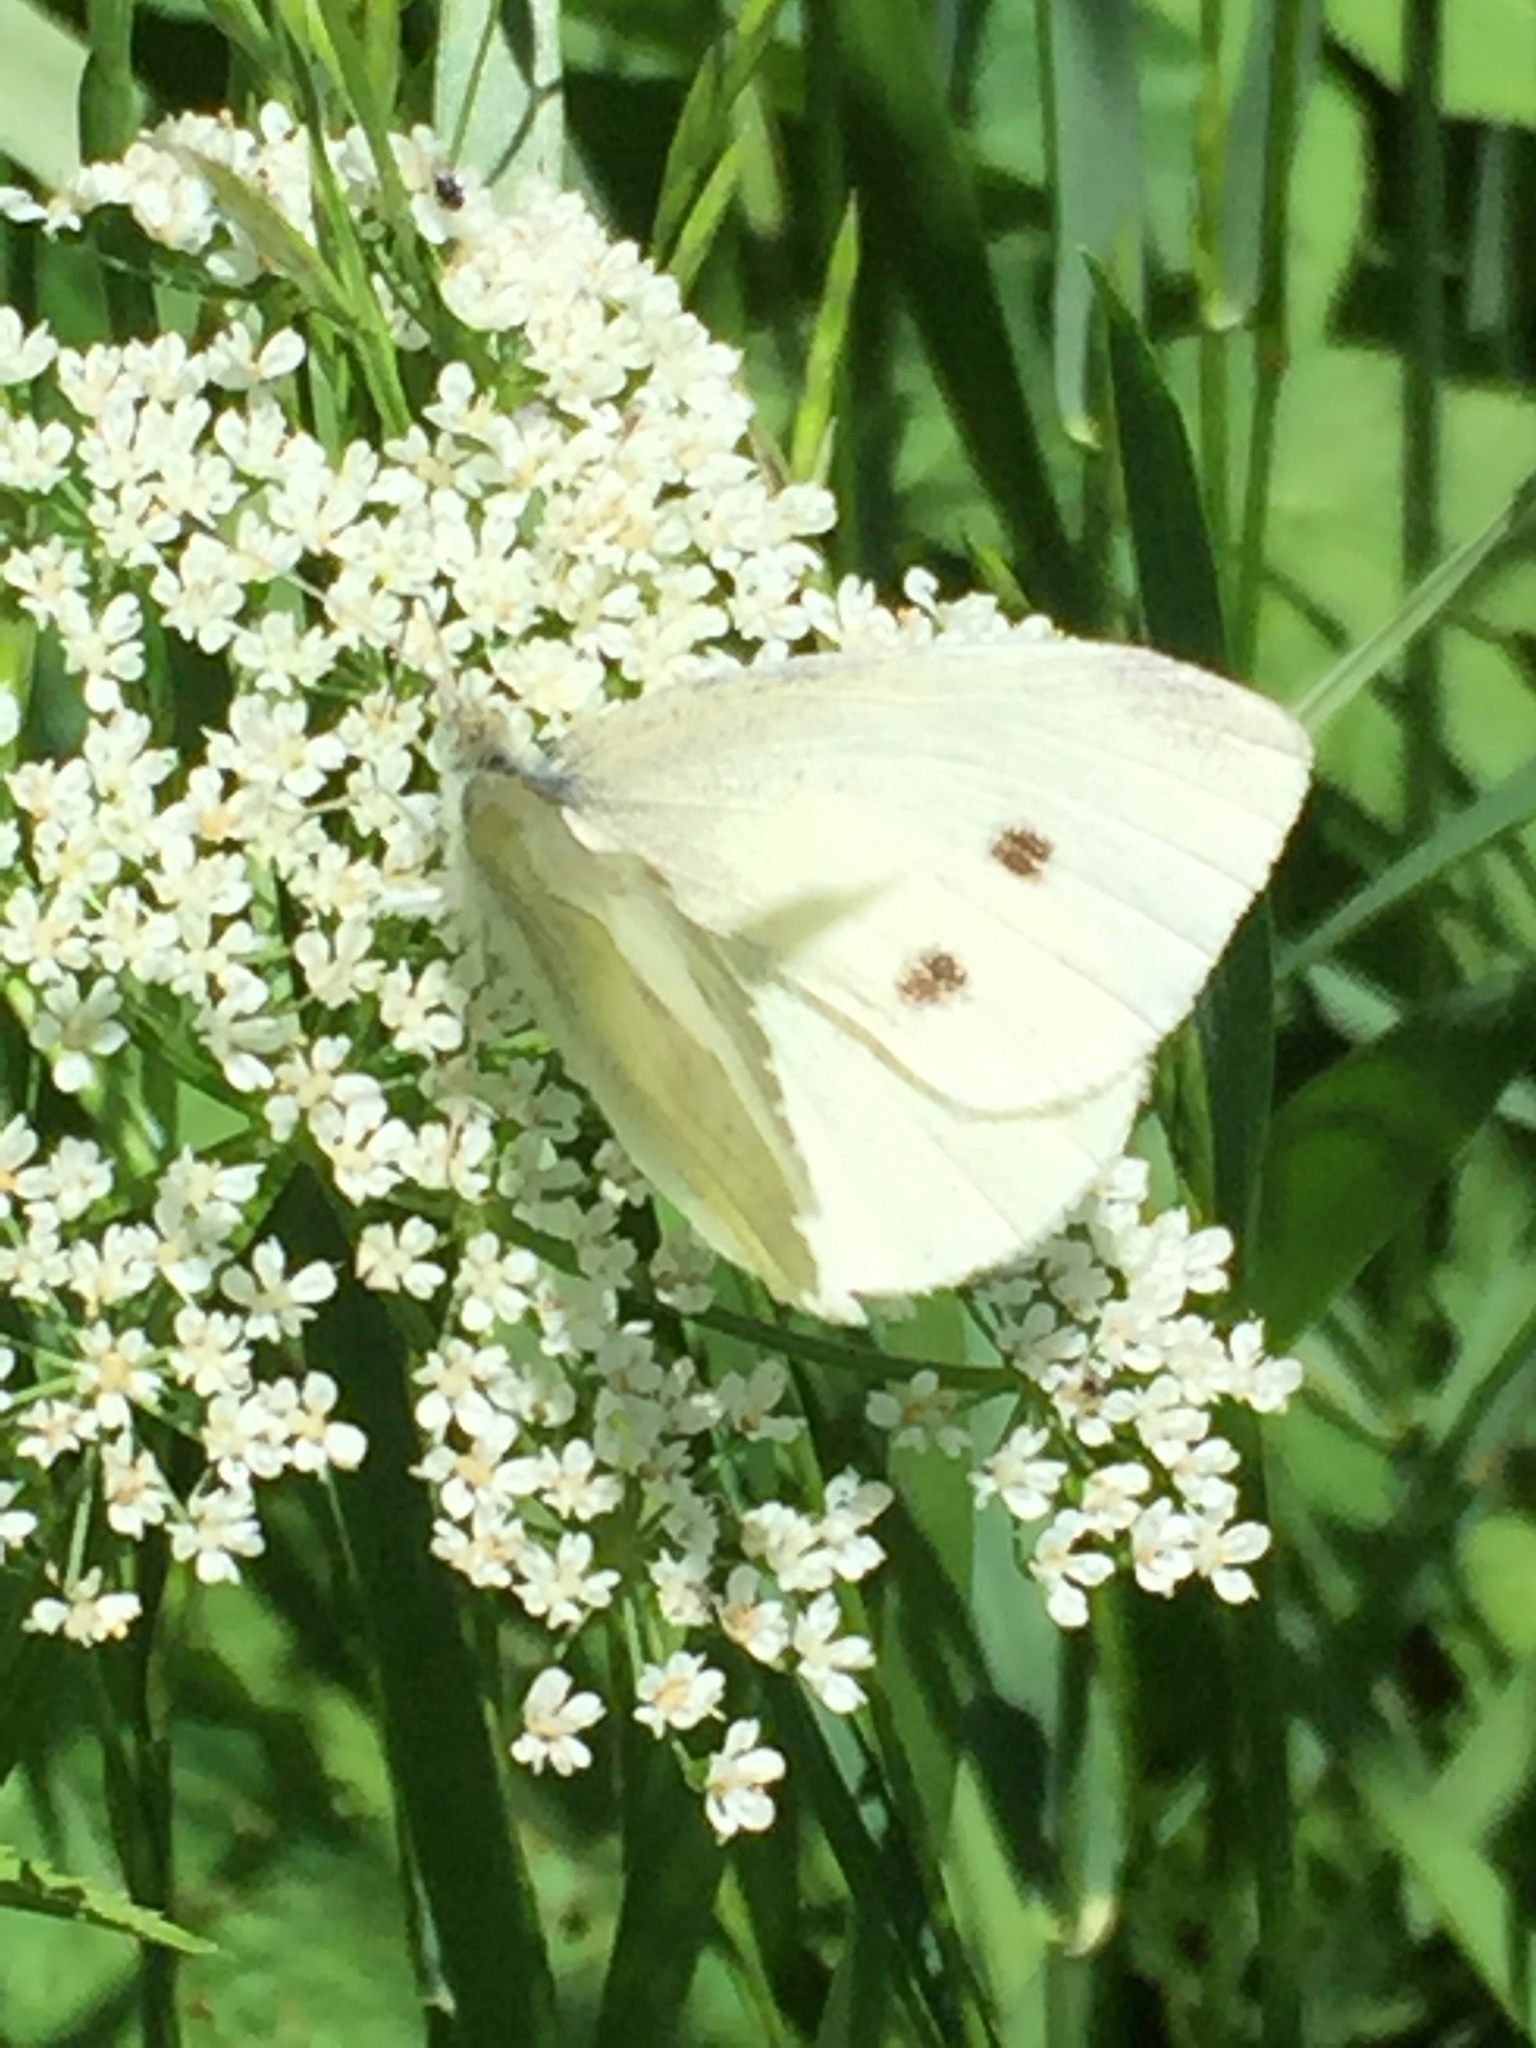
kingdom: Animalia
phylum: Arthropoda
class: Insecta
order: Lepidoptera
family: Pieridae
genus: Pieris
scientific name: Pieris rapae
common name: Small white
